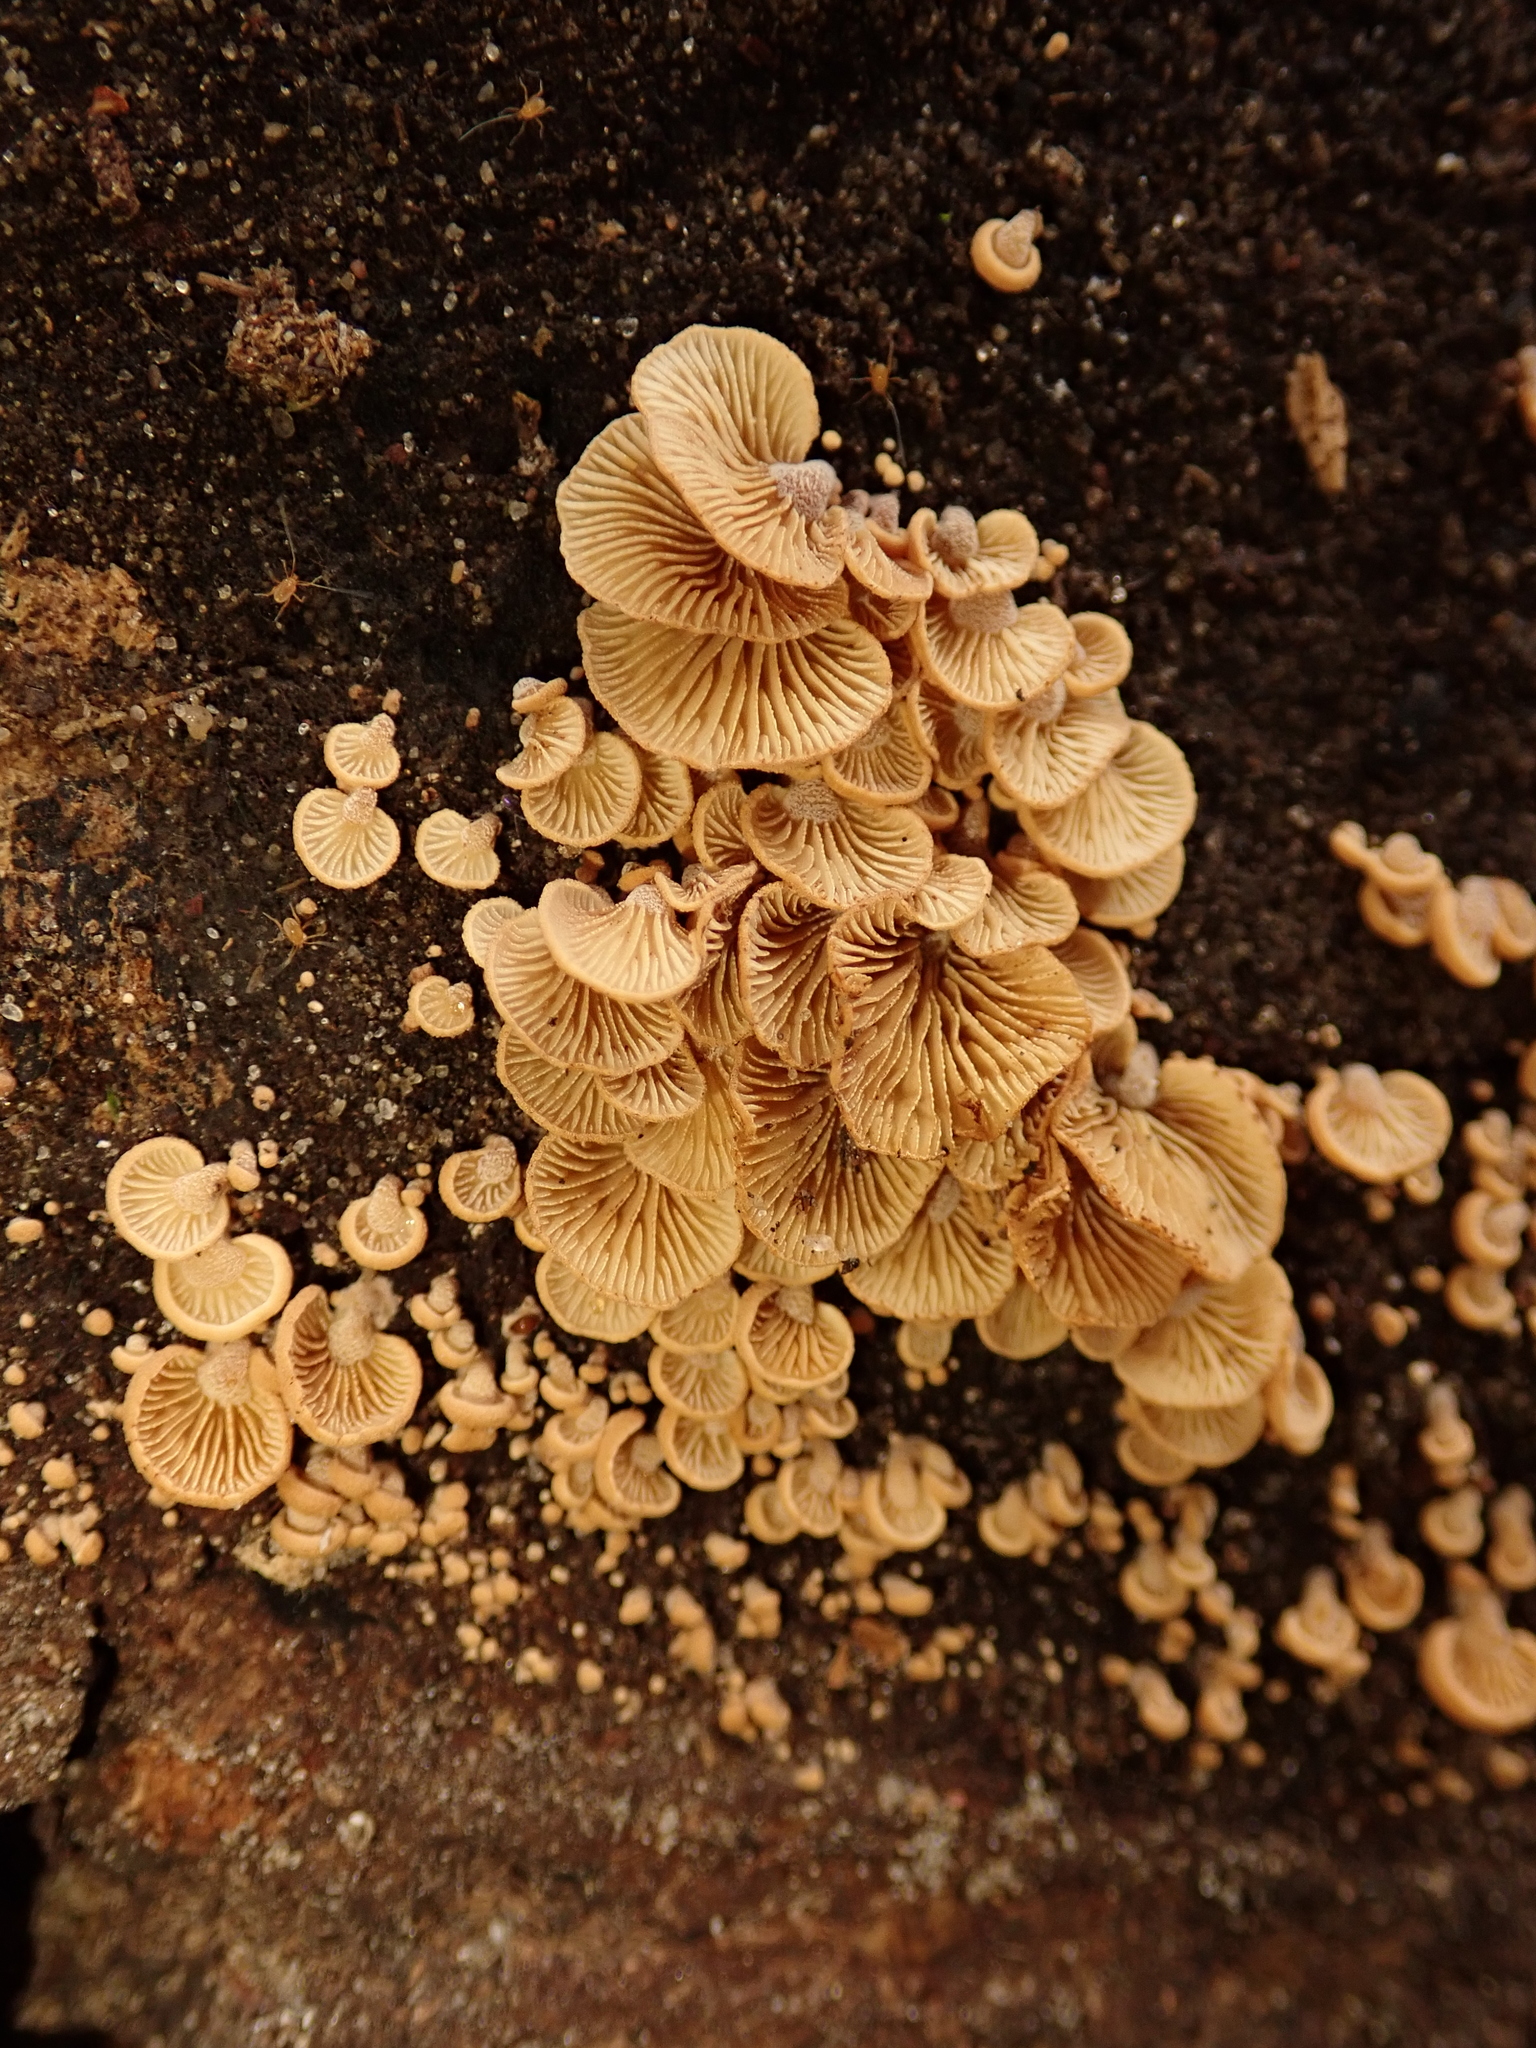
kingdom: Fungi
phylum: Basidiomycota
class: Agaricomycetes
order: Agaricales
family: Mycenaceae
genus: Panellus
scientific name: Panellus stipticus
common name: Bitter oysterling
